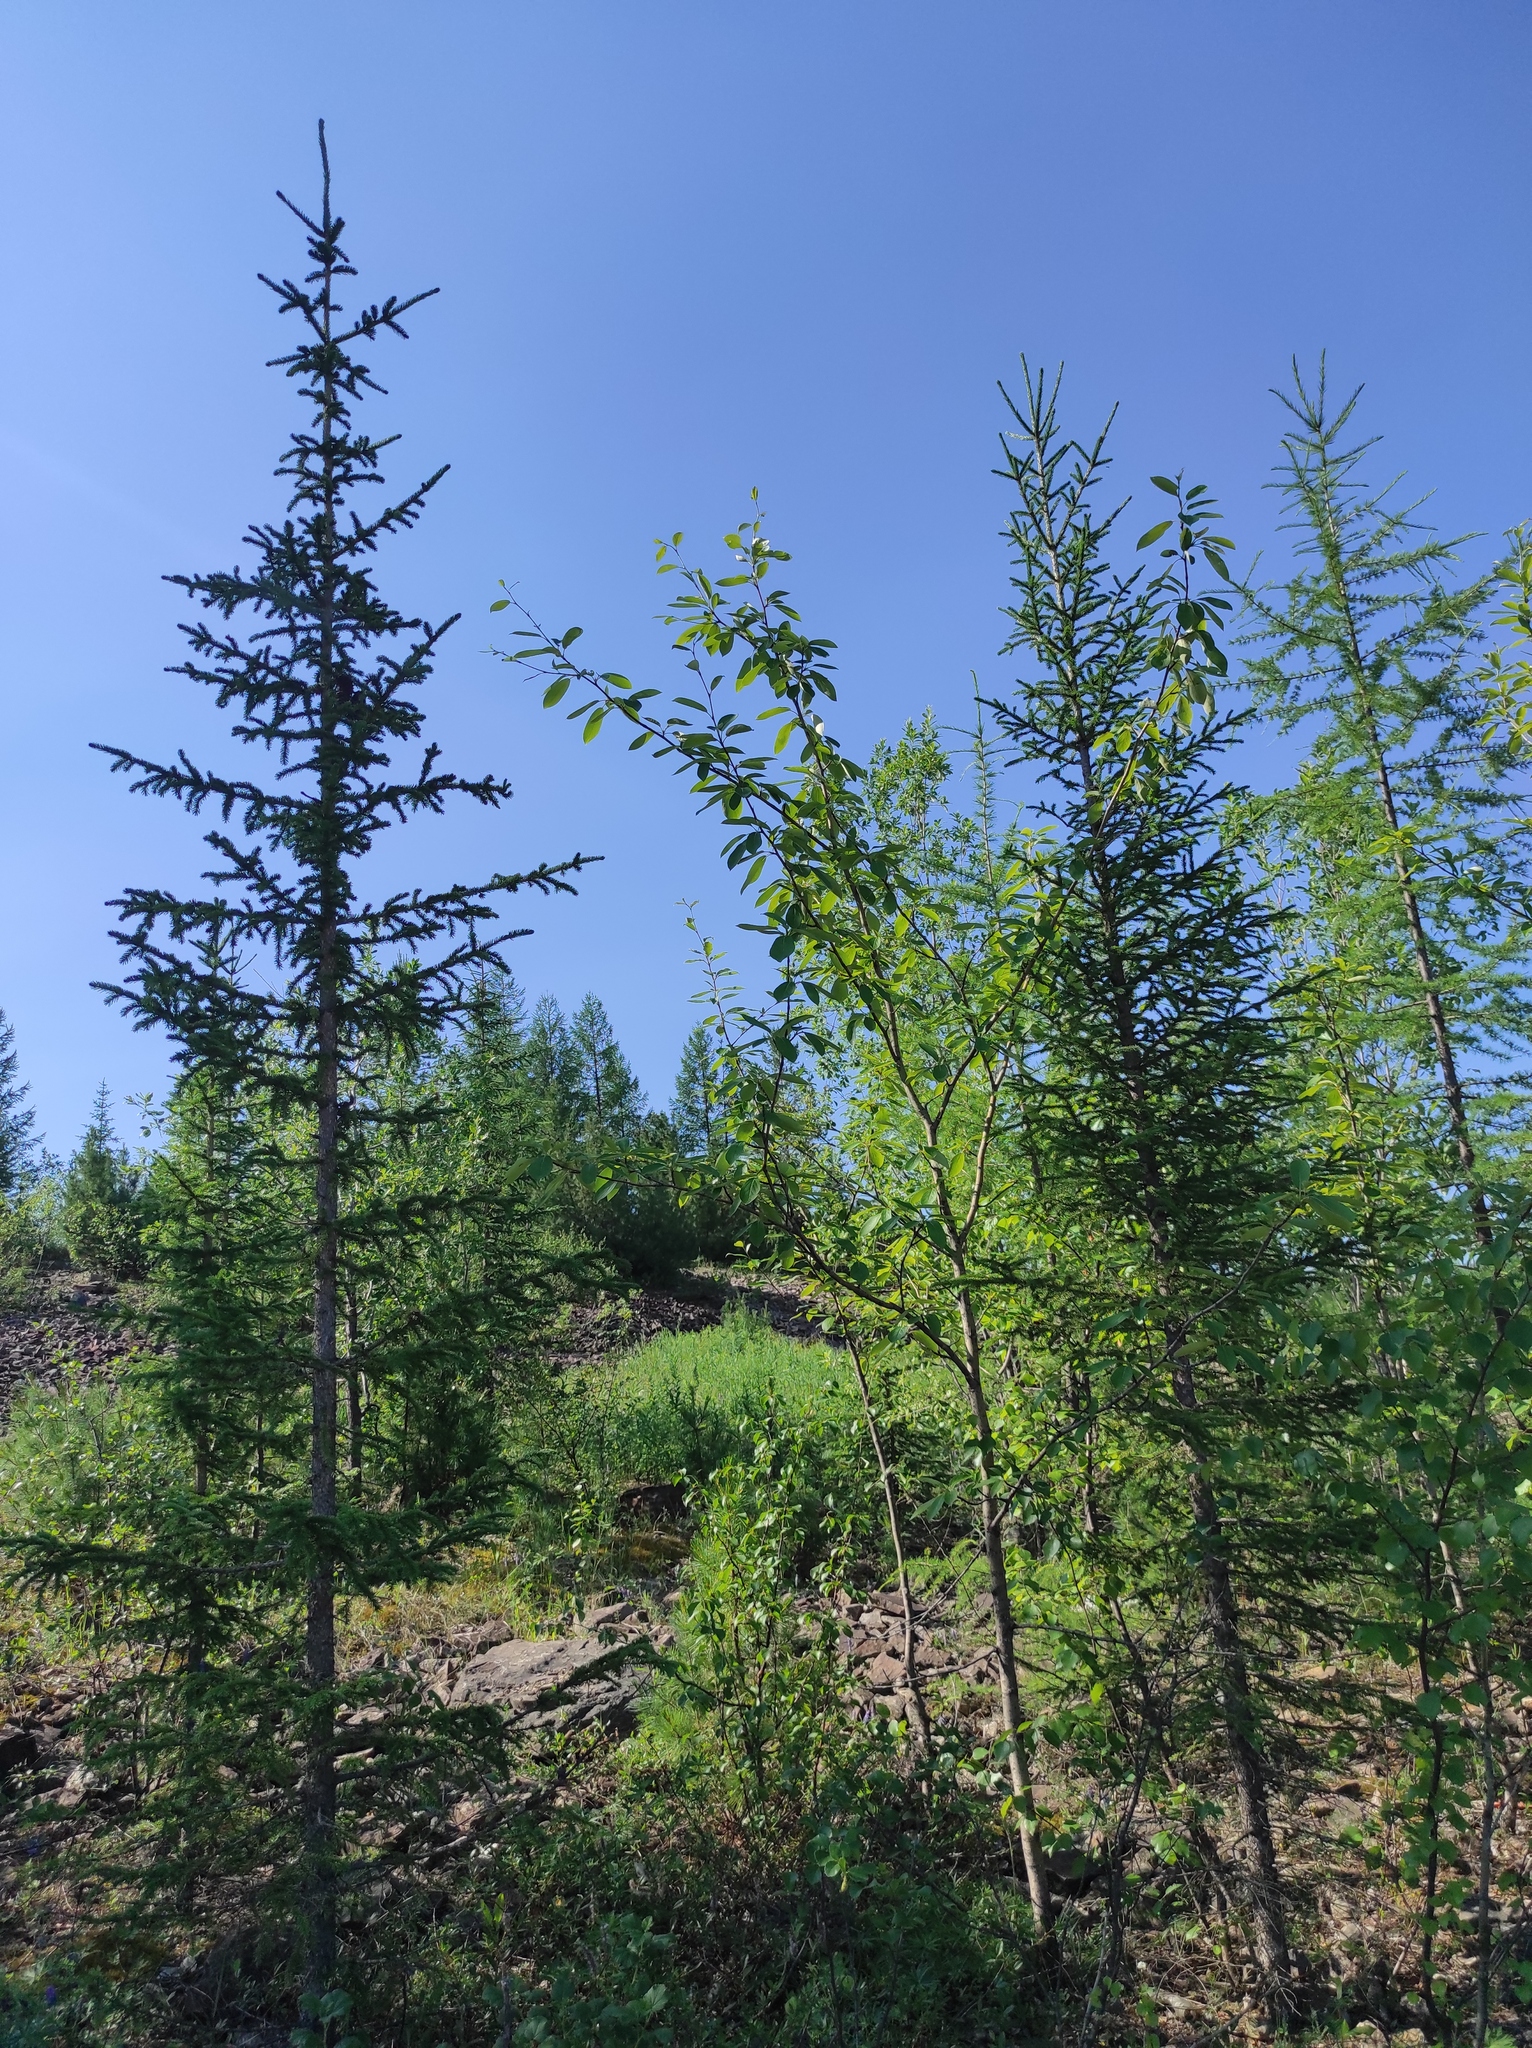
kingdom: Plantae
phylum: Tracheophyta
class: Magnoliopsida
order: Malpighiales
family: Salicaceae
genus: Populus
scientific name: Populus suaveolens
